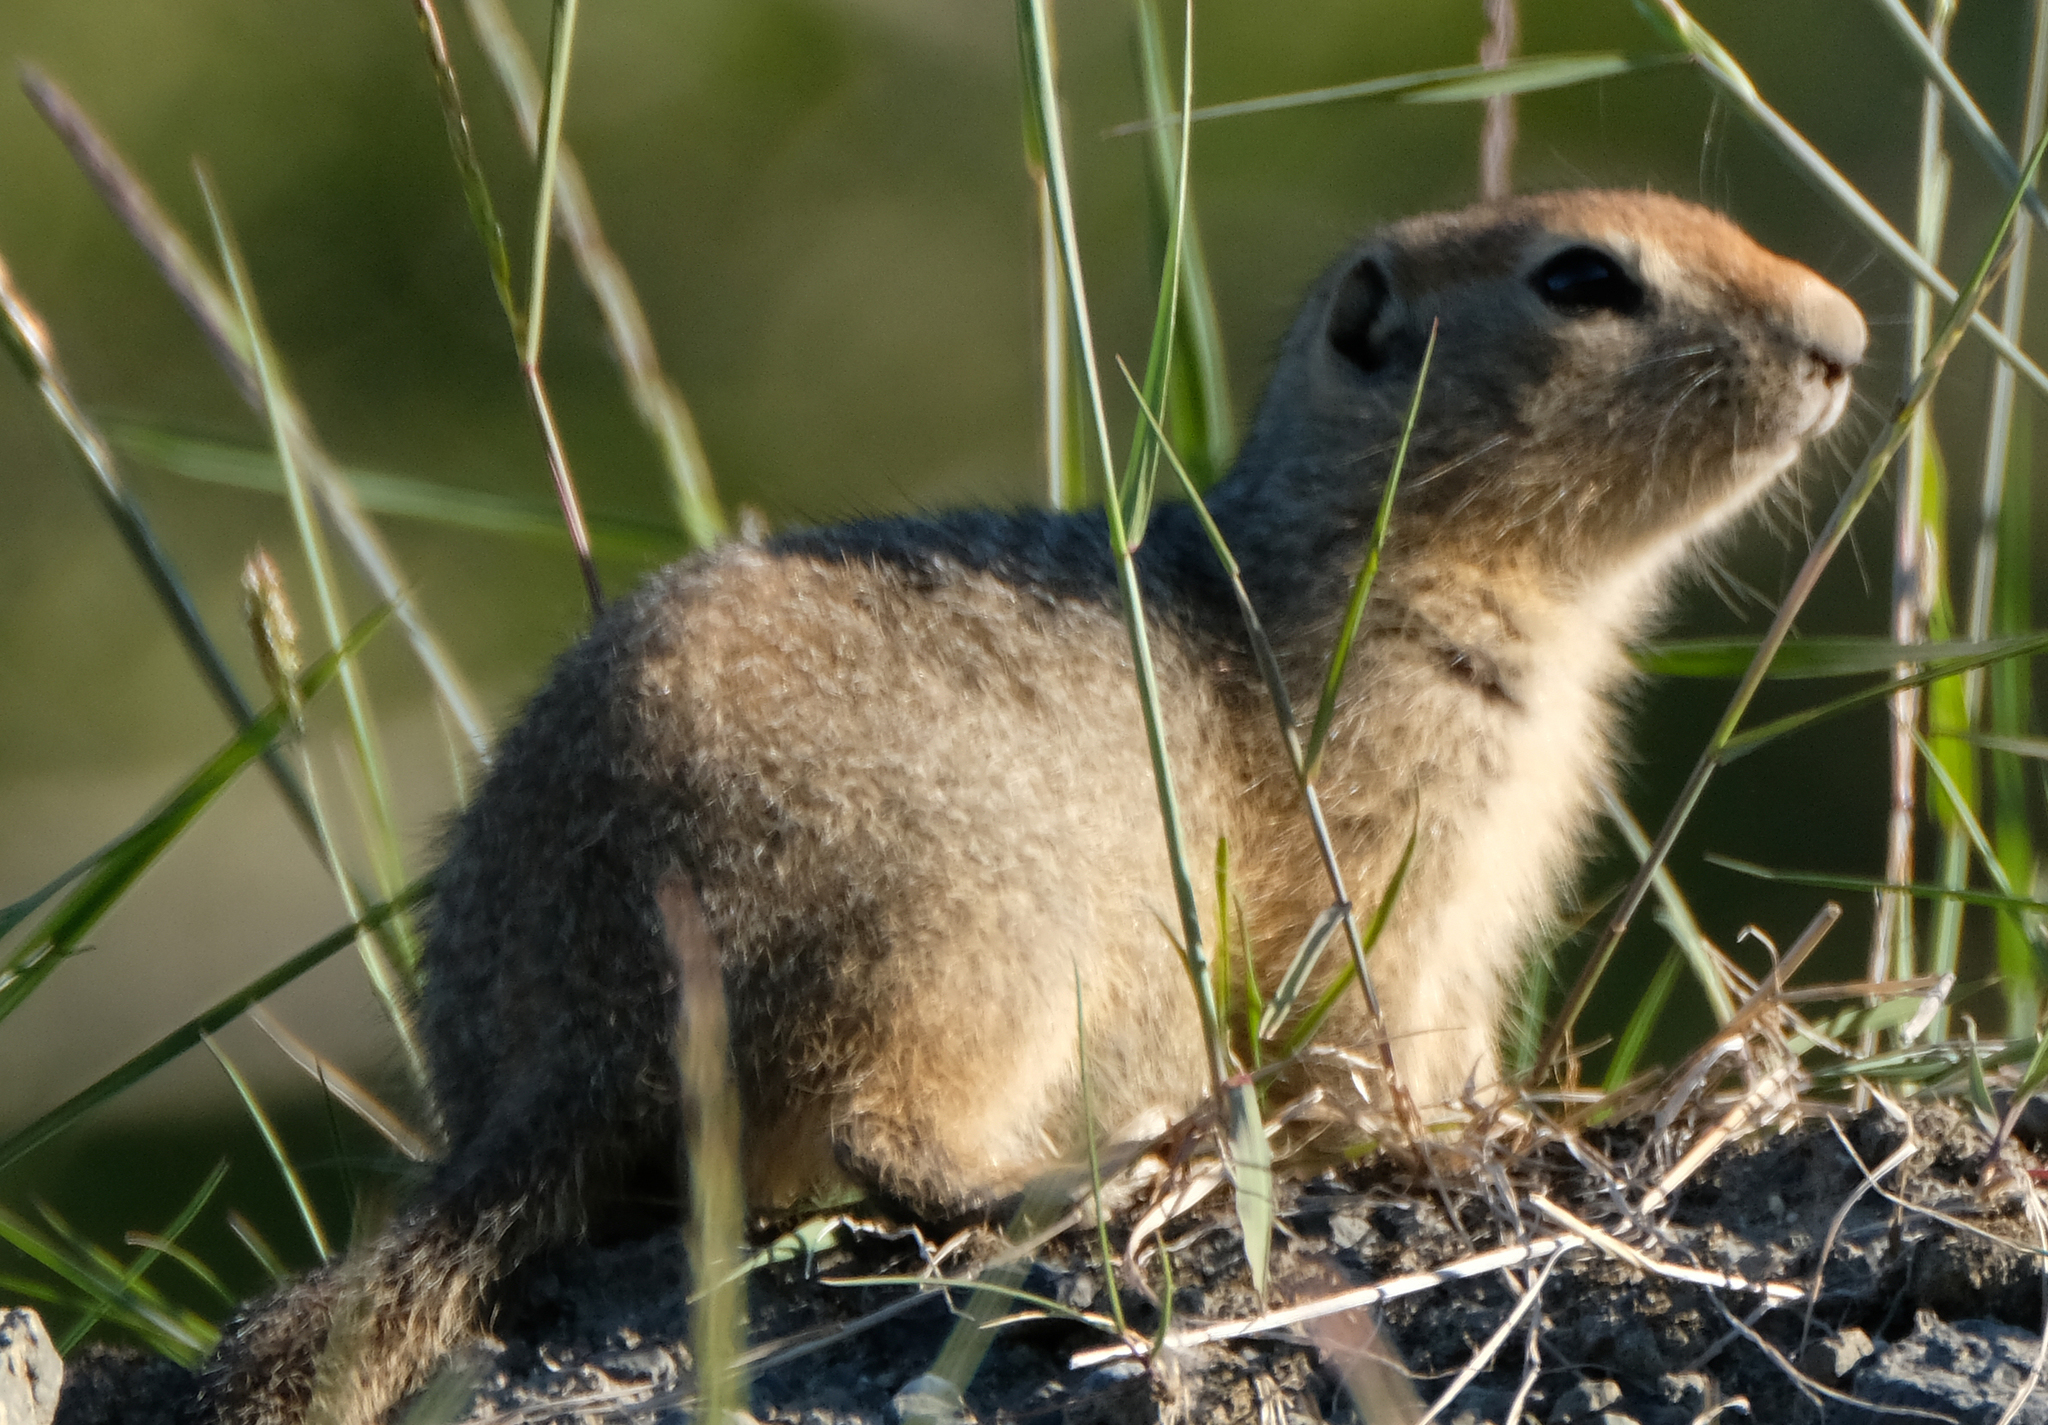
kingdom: Animalia
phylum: Chordata
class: Mammalia
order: Rodentia
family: Sciuridae
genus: Urocitellus
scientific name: Urocitellus parryii
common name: Arctic ground squirrel
